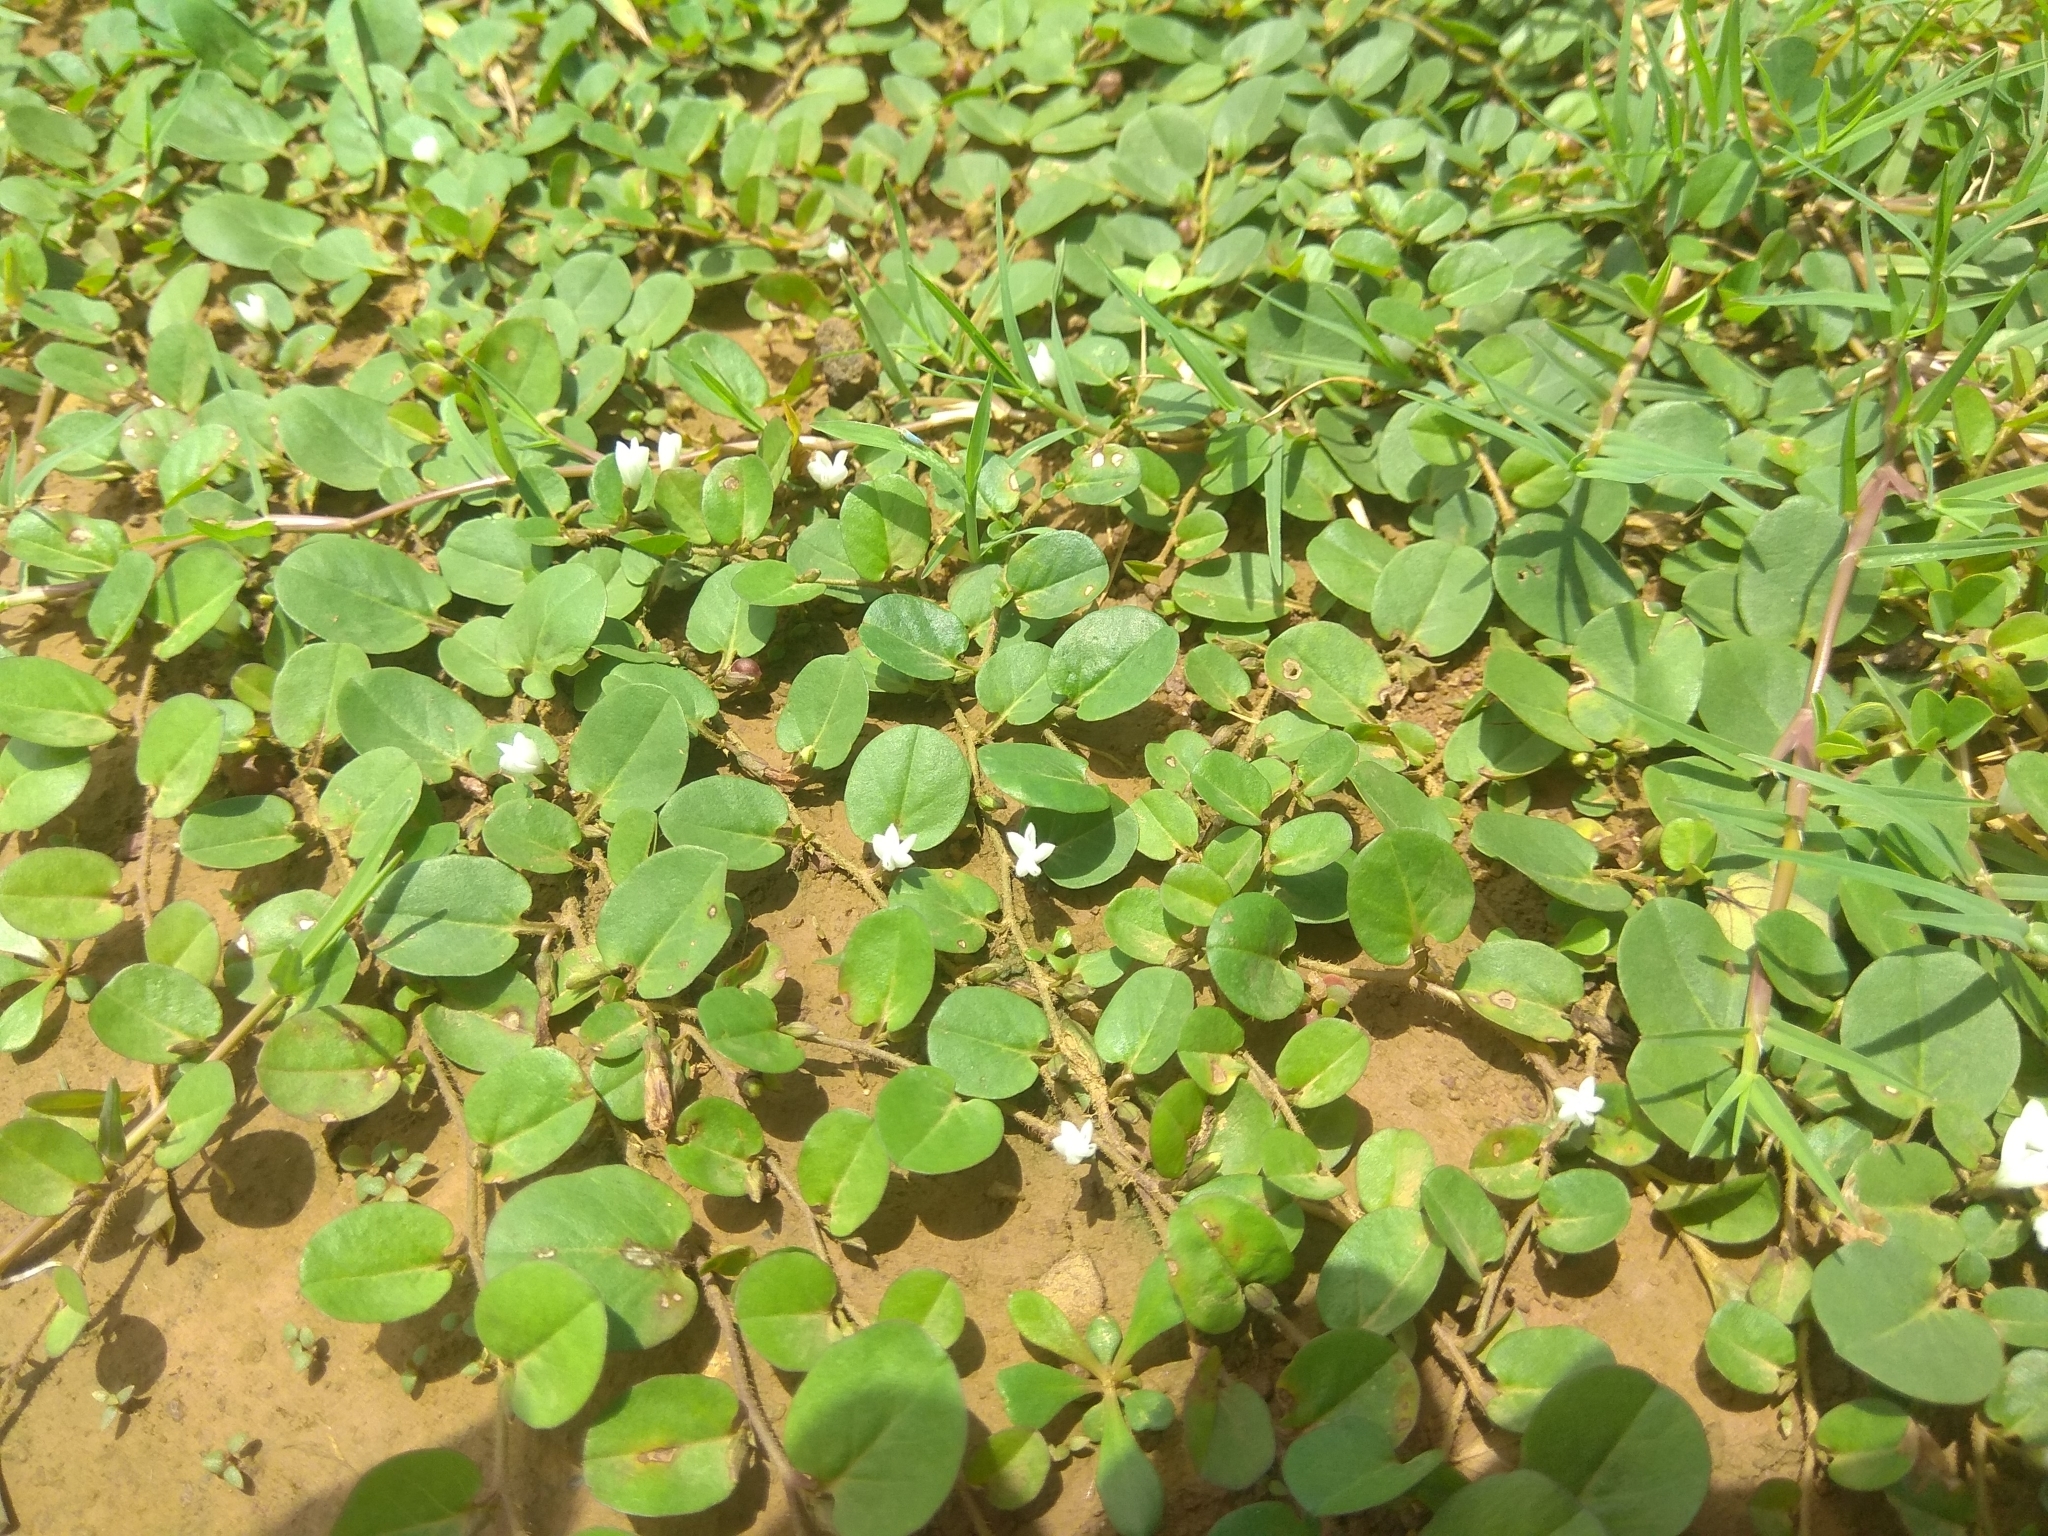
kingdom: Plantae
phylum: Tracheophyta
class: Magnoliopsida
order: Solanales
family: Convolvulaceae
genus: Evolvulus
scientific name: Evolvulus nummularius
